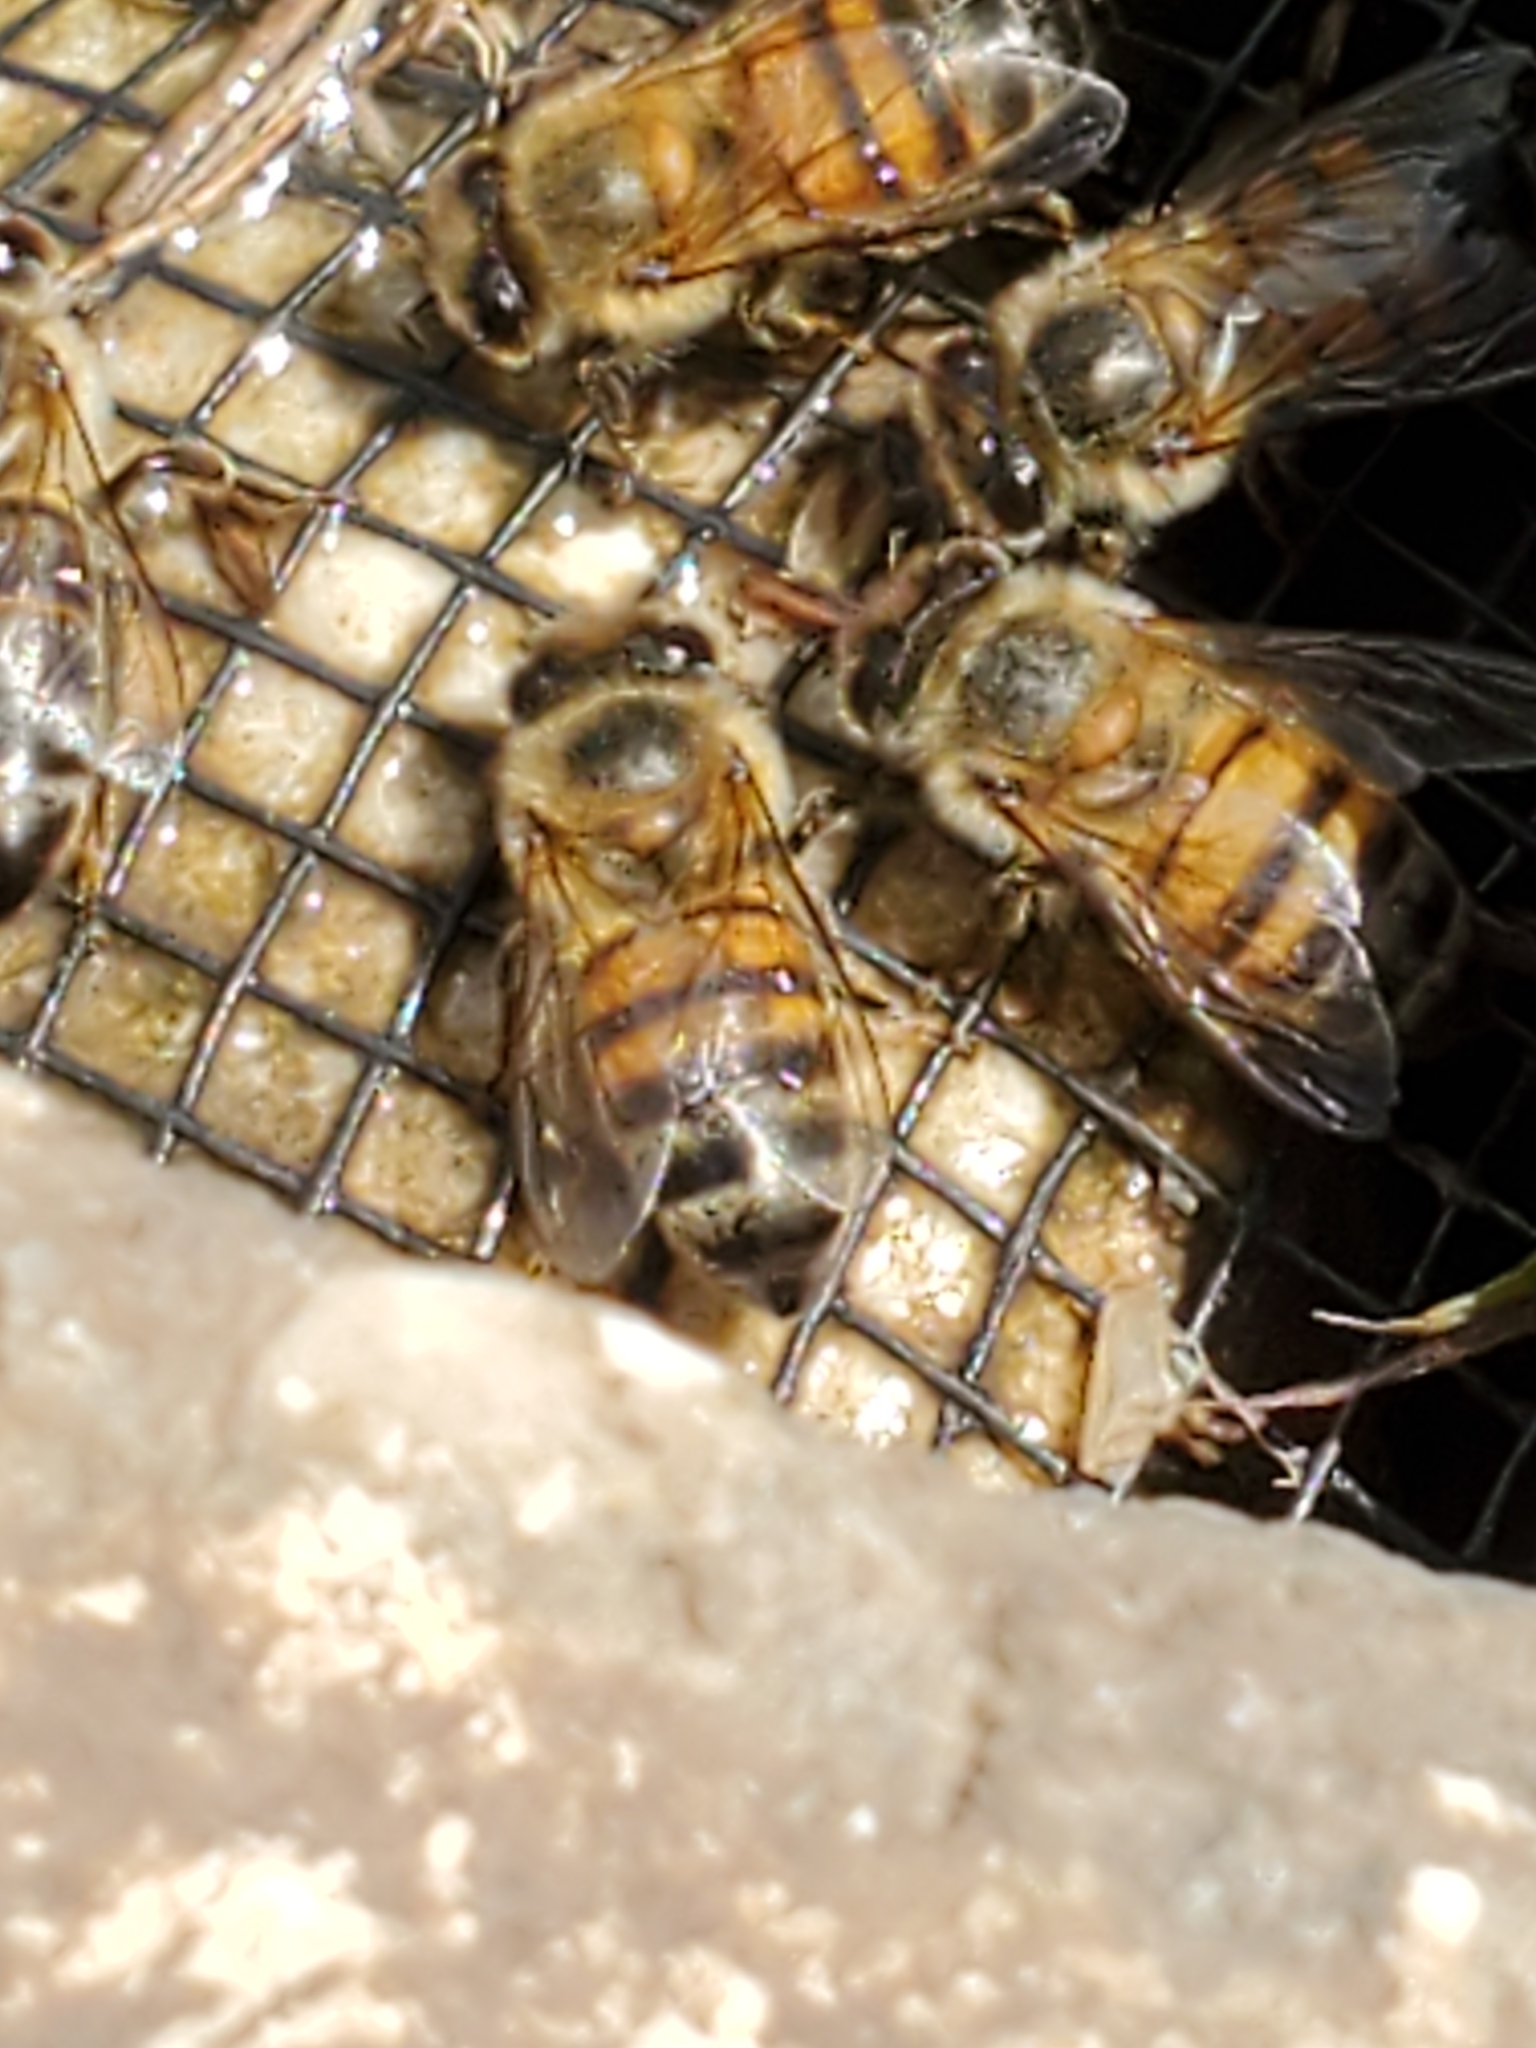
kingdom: Animalia
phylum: Arthropoda
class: Insecta
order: Hymenoptera
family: Apidae
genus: Apis
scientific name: Apis mellifera
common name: Honey bee
